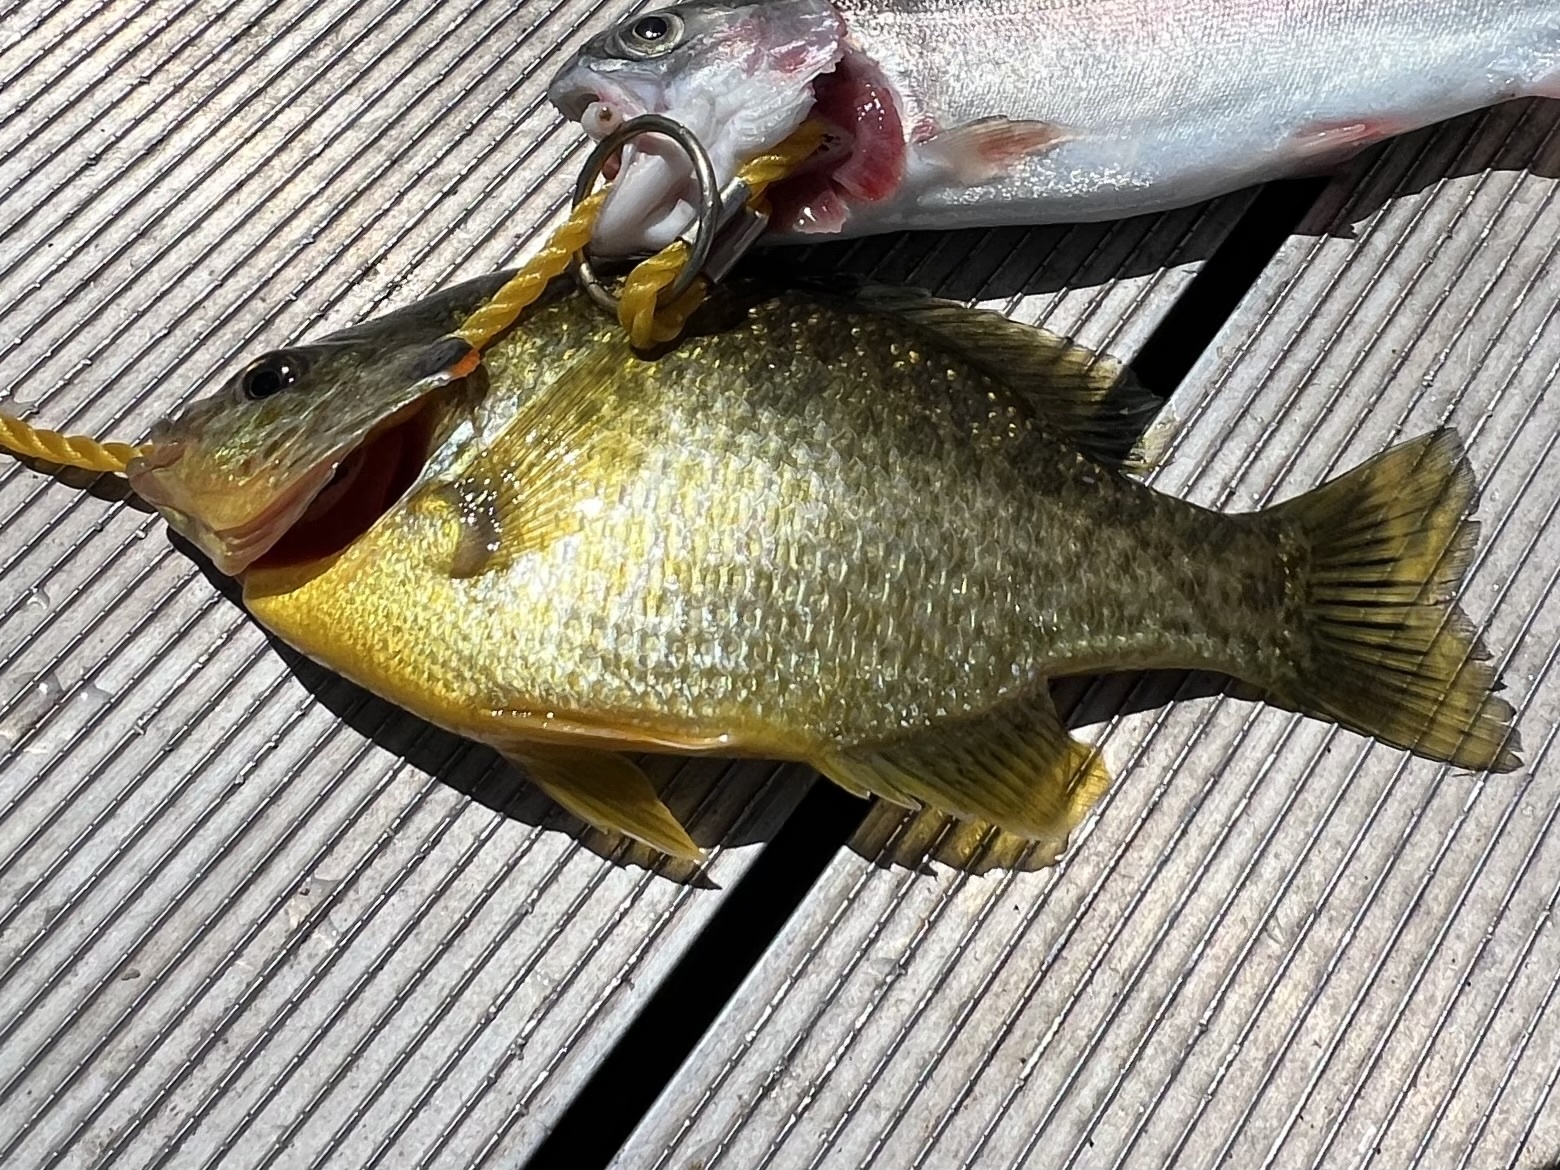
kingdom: Animalia
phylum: Chordata
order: Perciformes
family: Centrarchidae
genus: Lepomis
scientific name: Lepomis microlophus
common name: Redear sunfish
